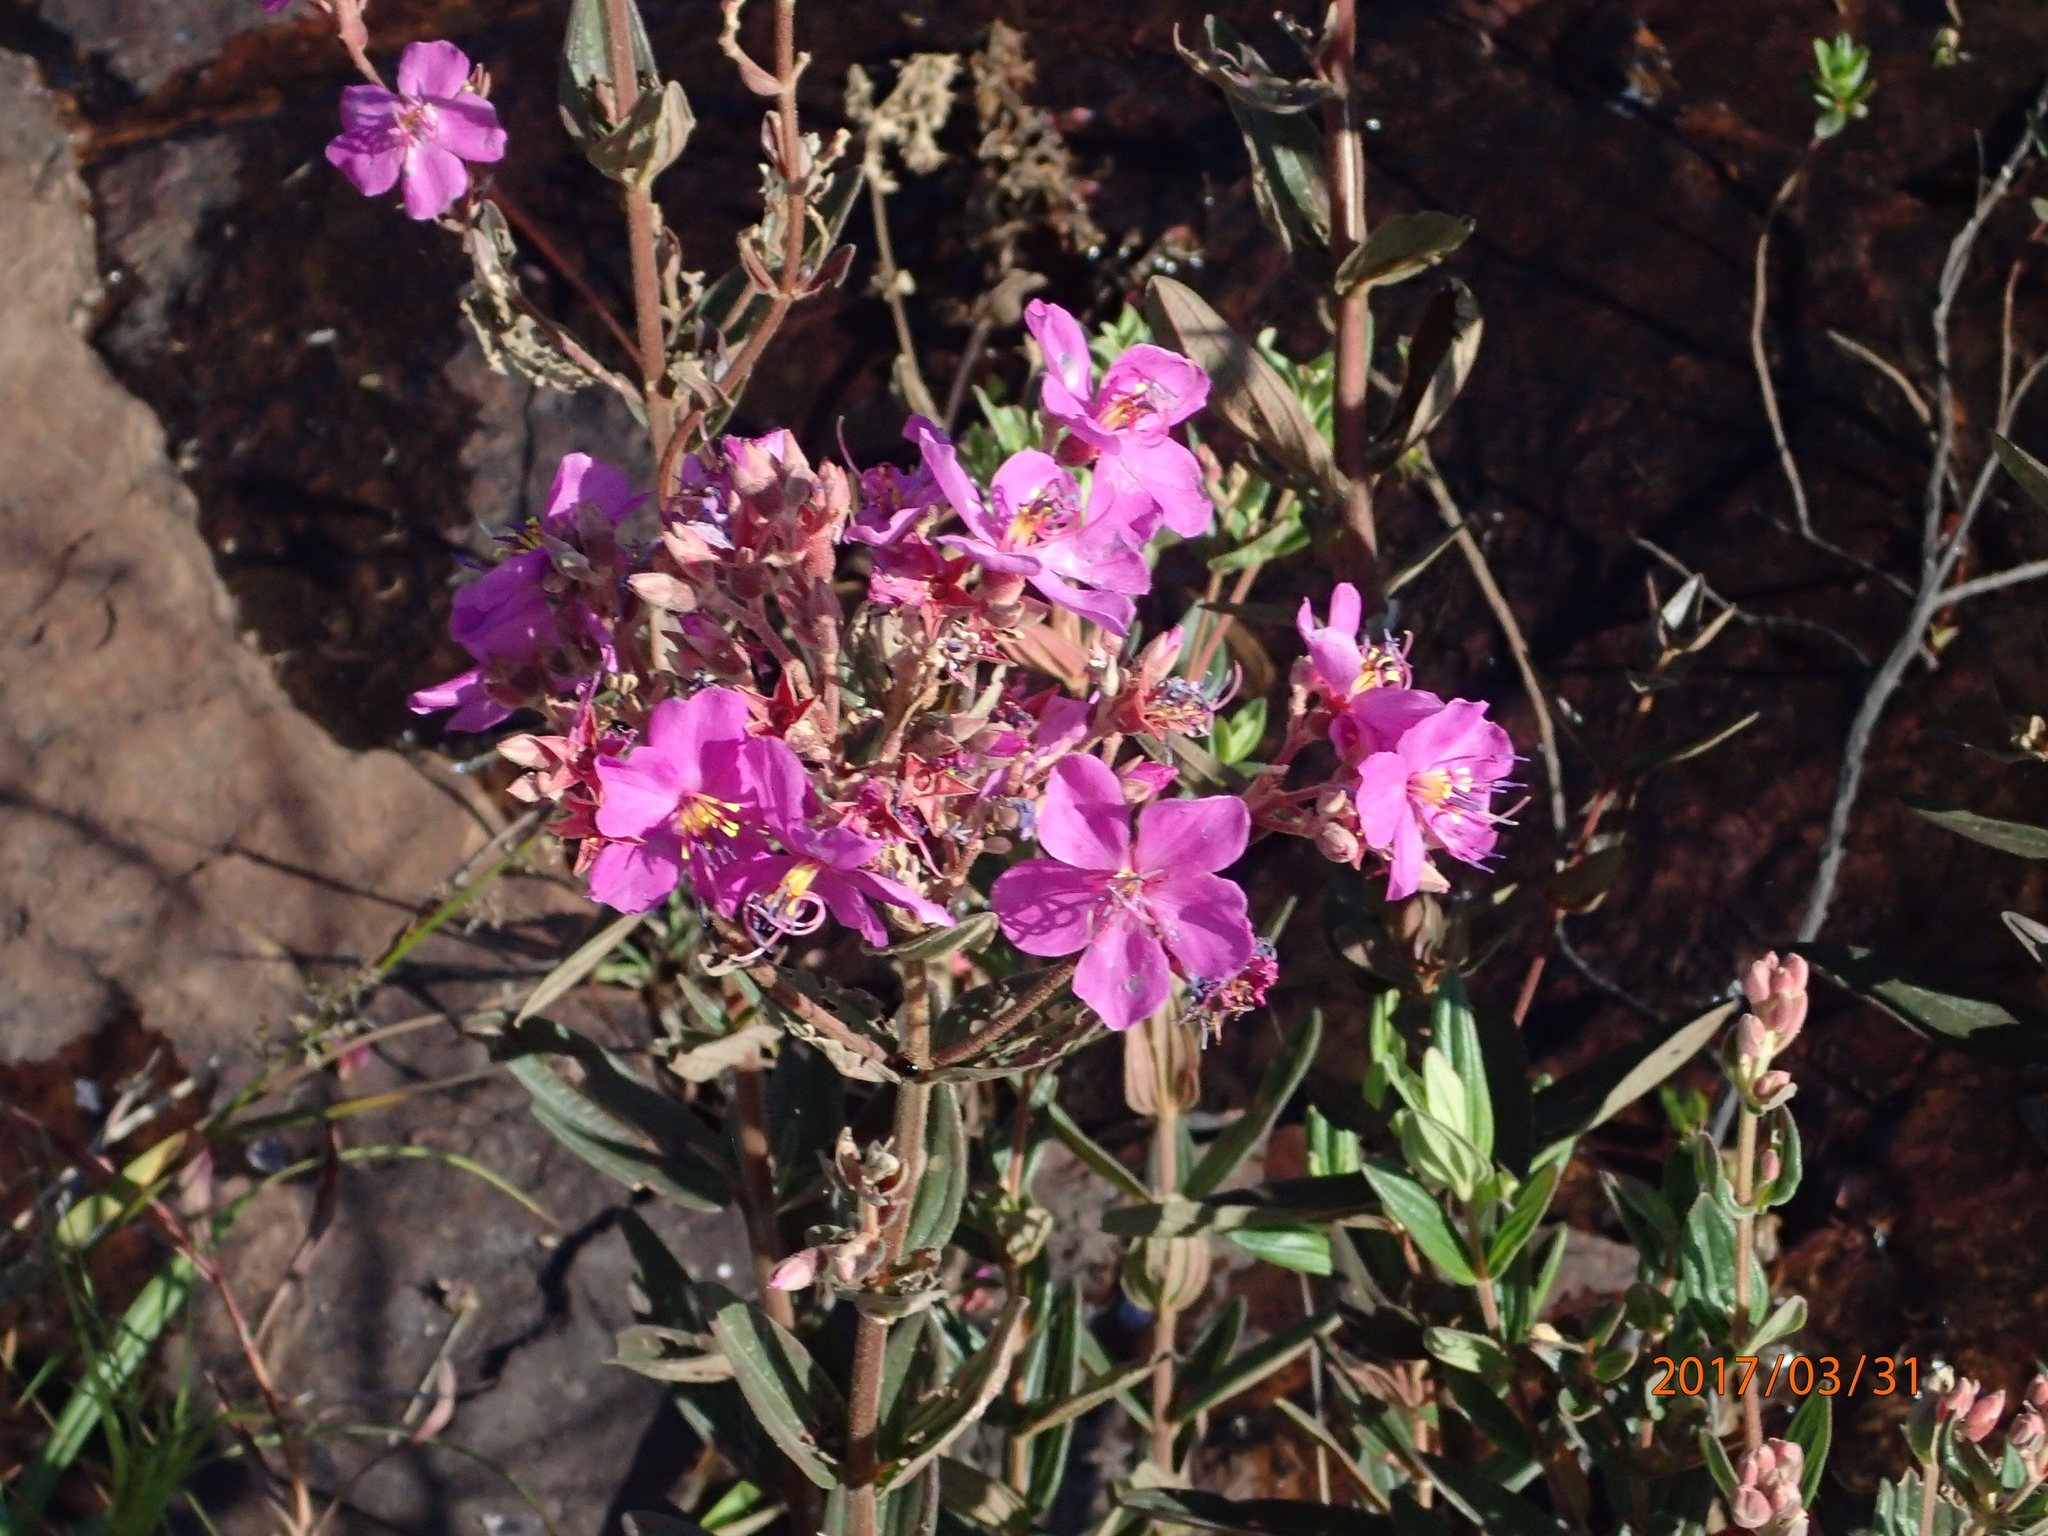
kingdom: Plantae
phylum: Tracheophyta
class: Magnoliopsida
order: Myrtales
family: Melastomataceae
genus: Argyrella
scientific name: Argyrella canescens
